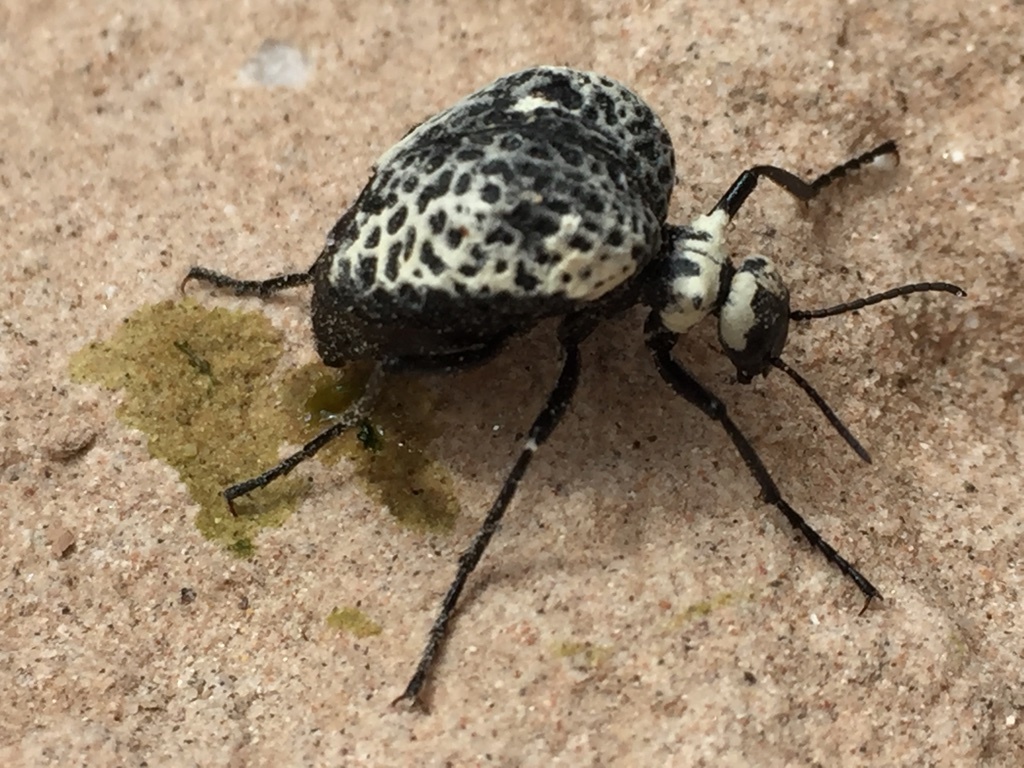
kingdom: Animalia
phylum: Arthropoda
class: Insecta
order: Coleoptera
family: Meloidae
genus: Cysteodemus
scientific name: Cysteodemus armatus
